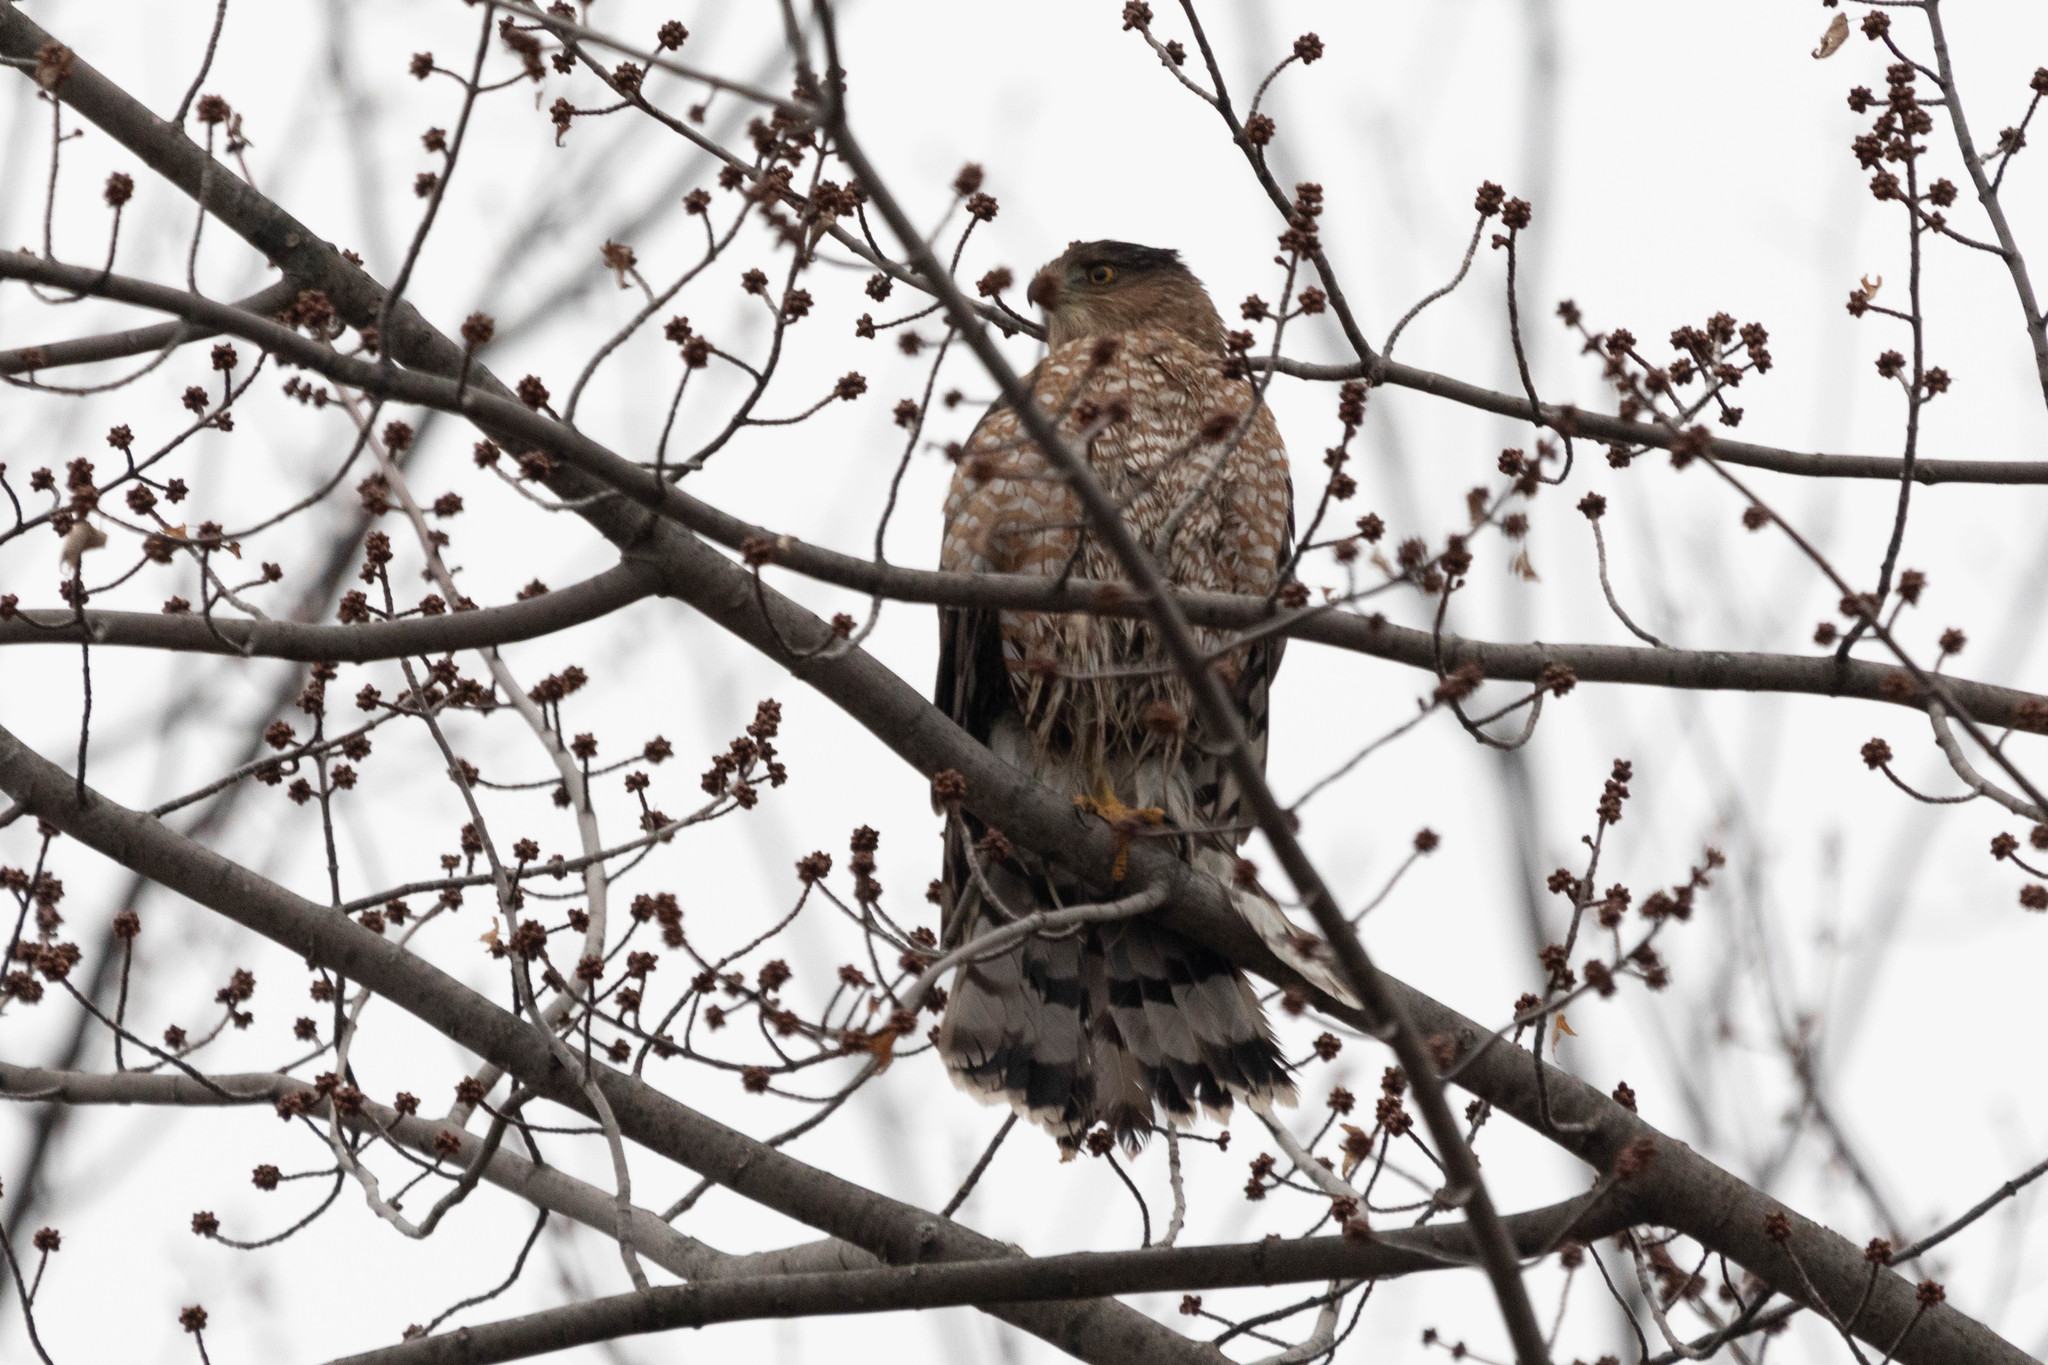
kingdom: Animalia
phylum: Chordata
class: Aves
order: Accipitriformes
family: Accipitridae
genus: Accipiter
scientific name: Accipiter cooperii
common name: Cooper's hawk
